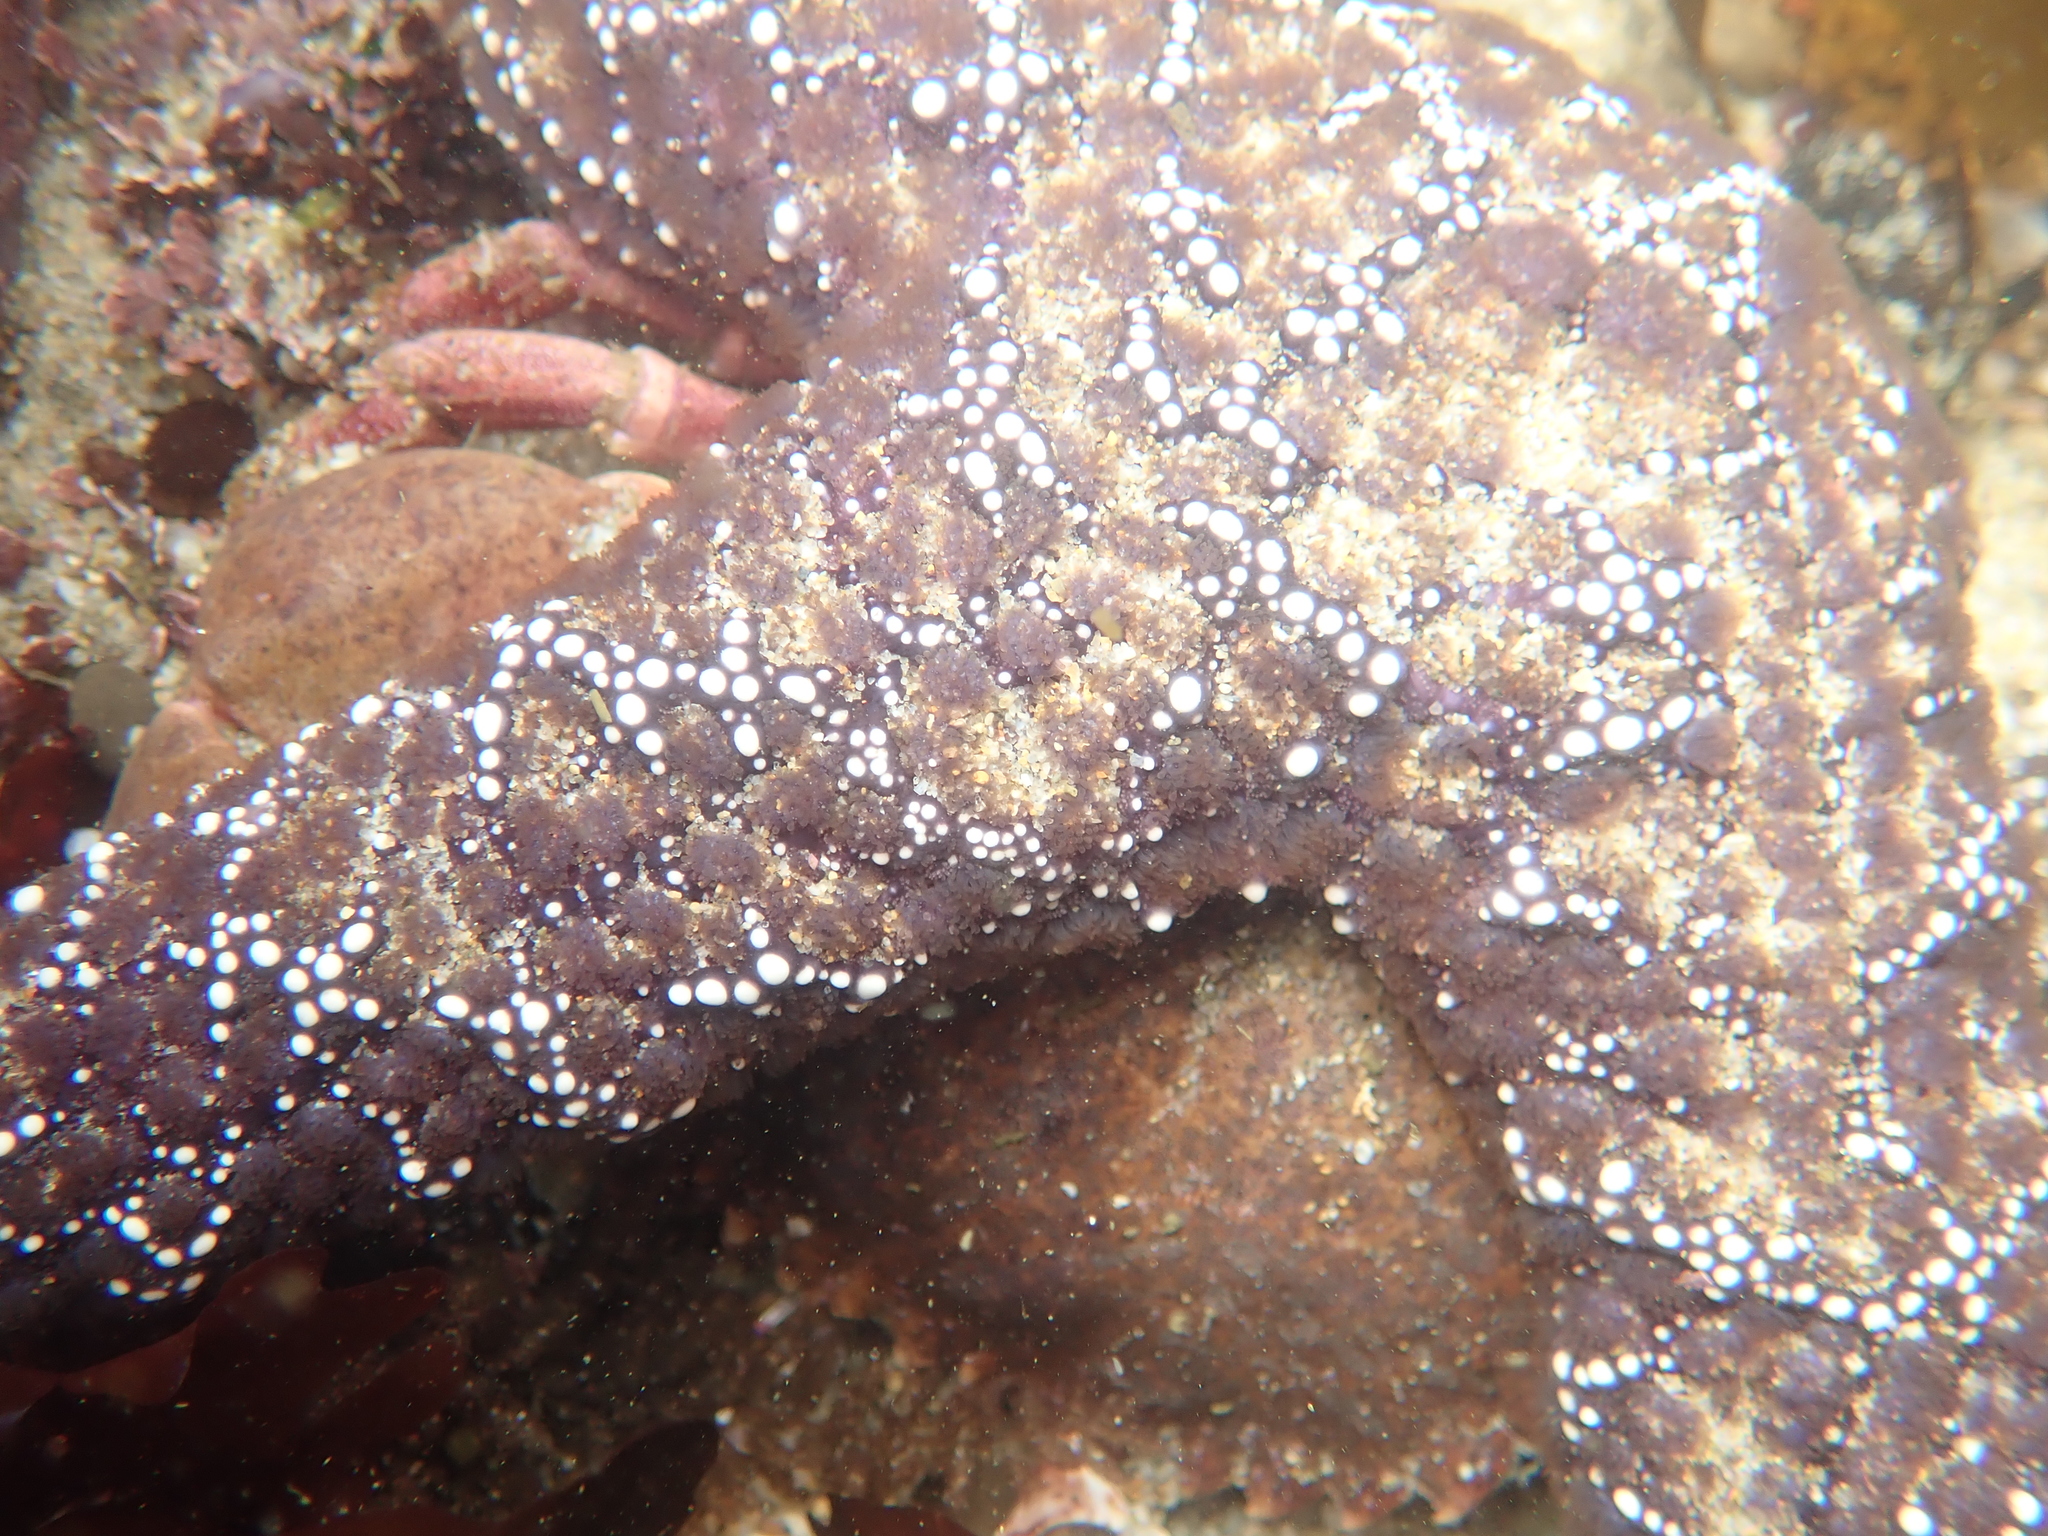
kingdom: Animalia
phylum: Echinodermata
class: Asteroidea
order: Forcipulatida
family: Asteriidae
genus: Pisaster
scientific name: Pisaster ochraceus
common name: Ochre stars
